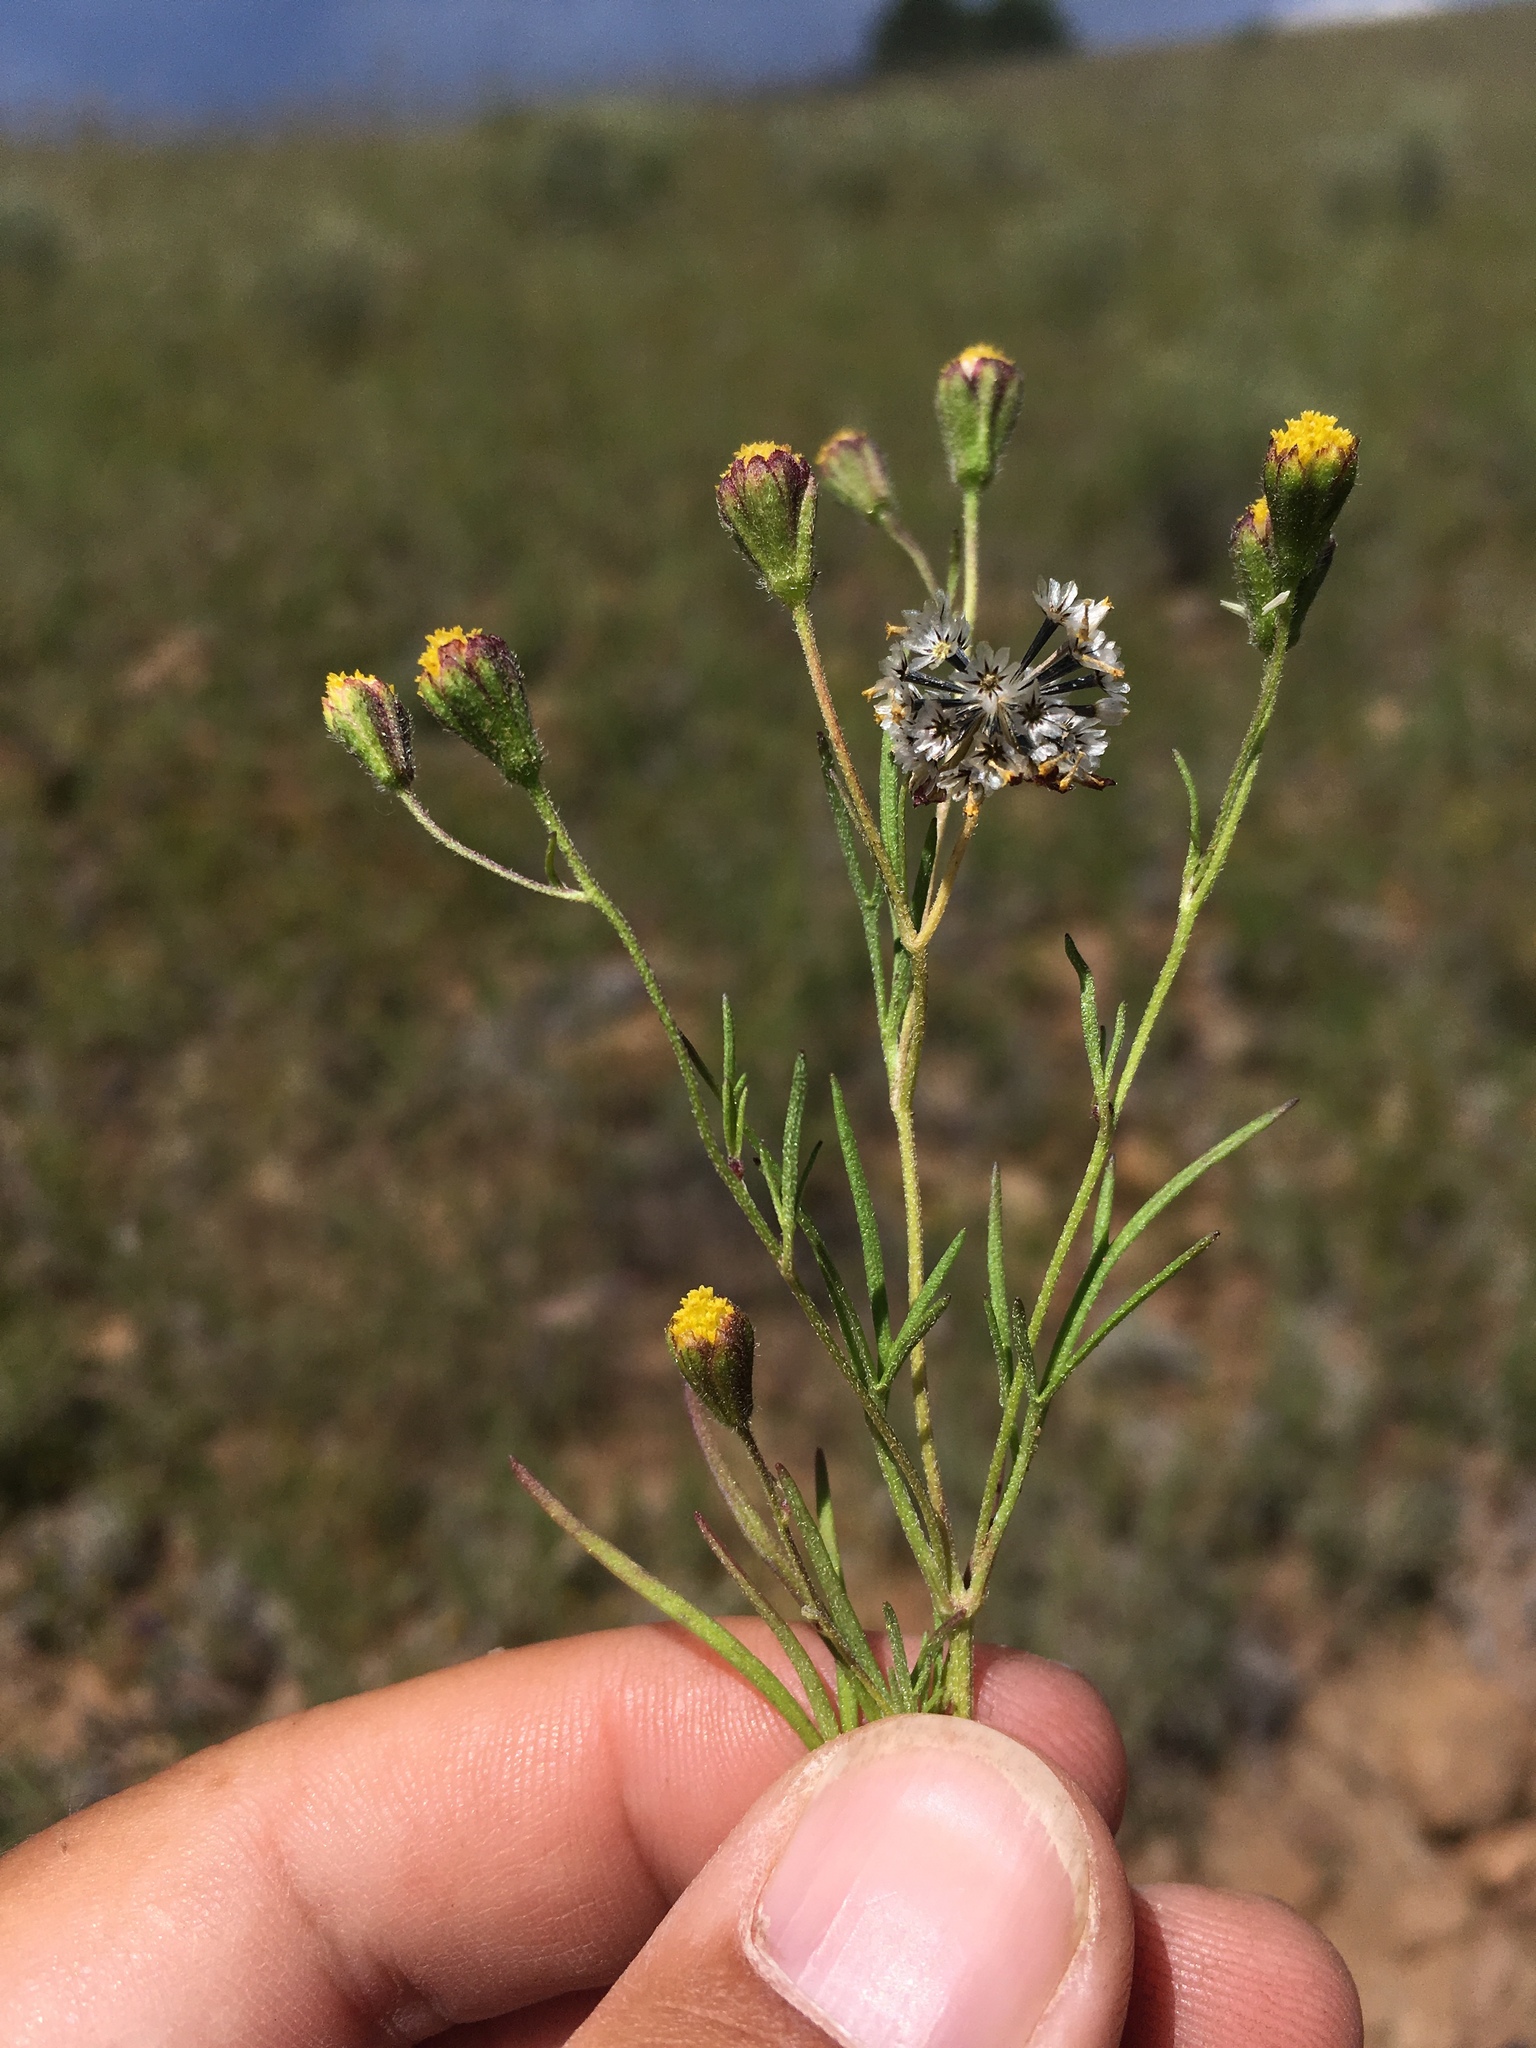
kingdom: Plantae
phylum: Tracheophyta
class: Magnoliopsida
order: Asterales
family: Asteraceae
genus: Picradeniopsis
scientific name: Picradeniopsis multiflora
